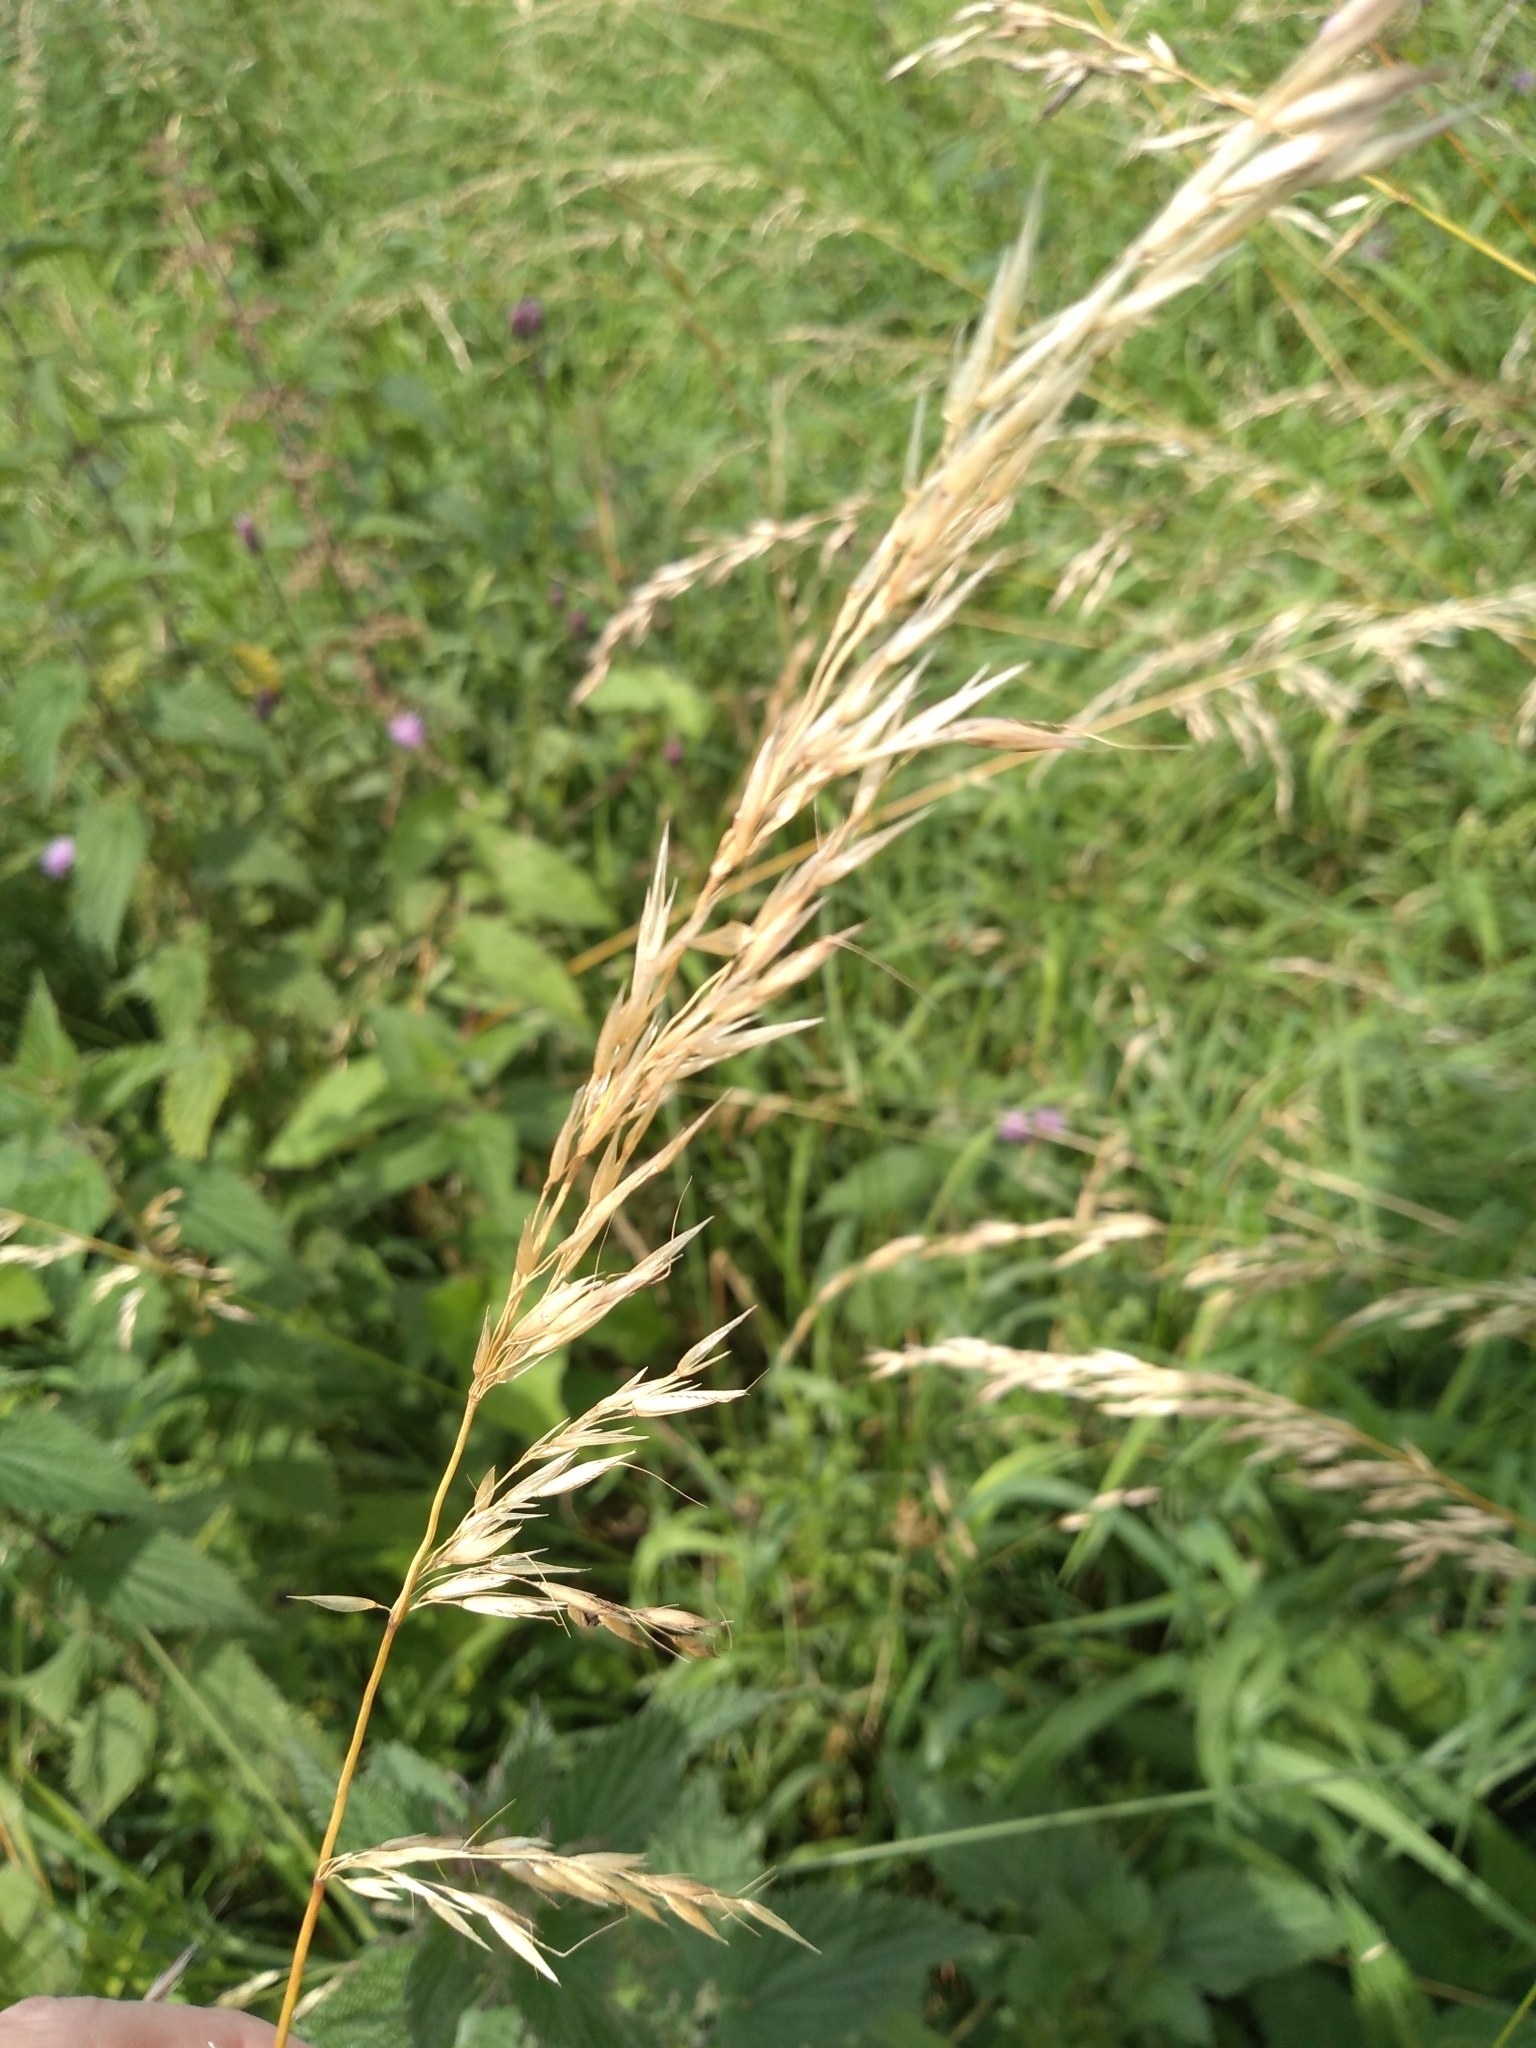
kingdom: Plantae
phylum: Tracheophyta
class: Liliopsida
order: Poales
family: Poaceae
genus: Arrhenatherum
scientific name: Arrhenatherum elatius
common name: Tall oatgrass
